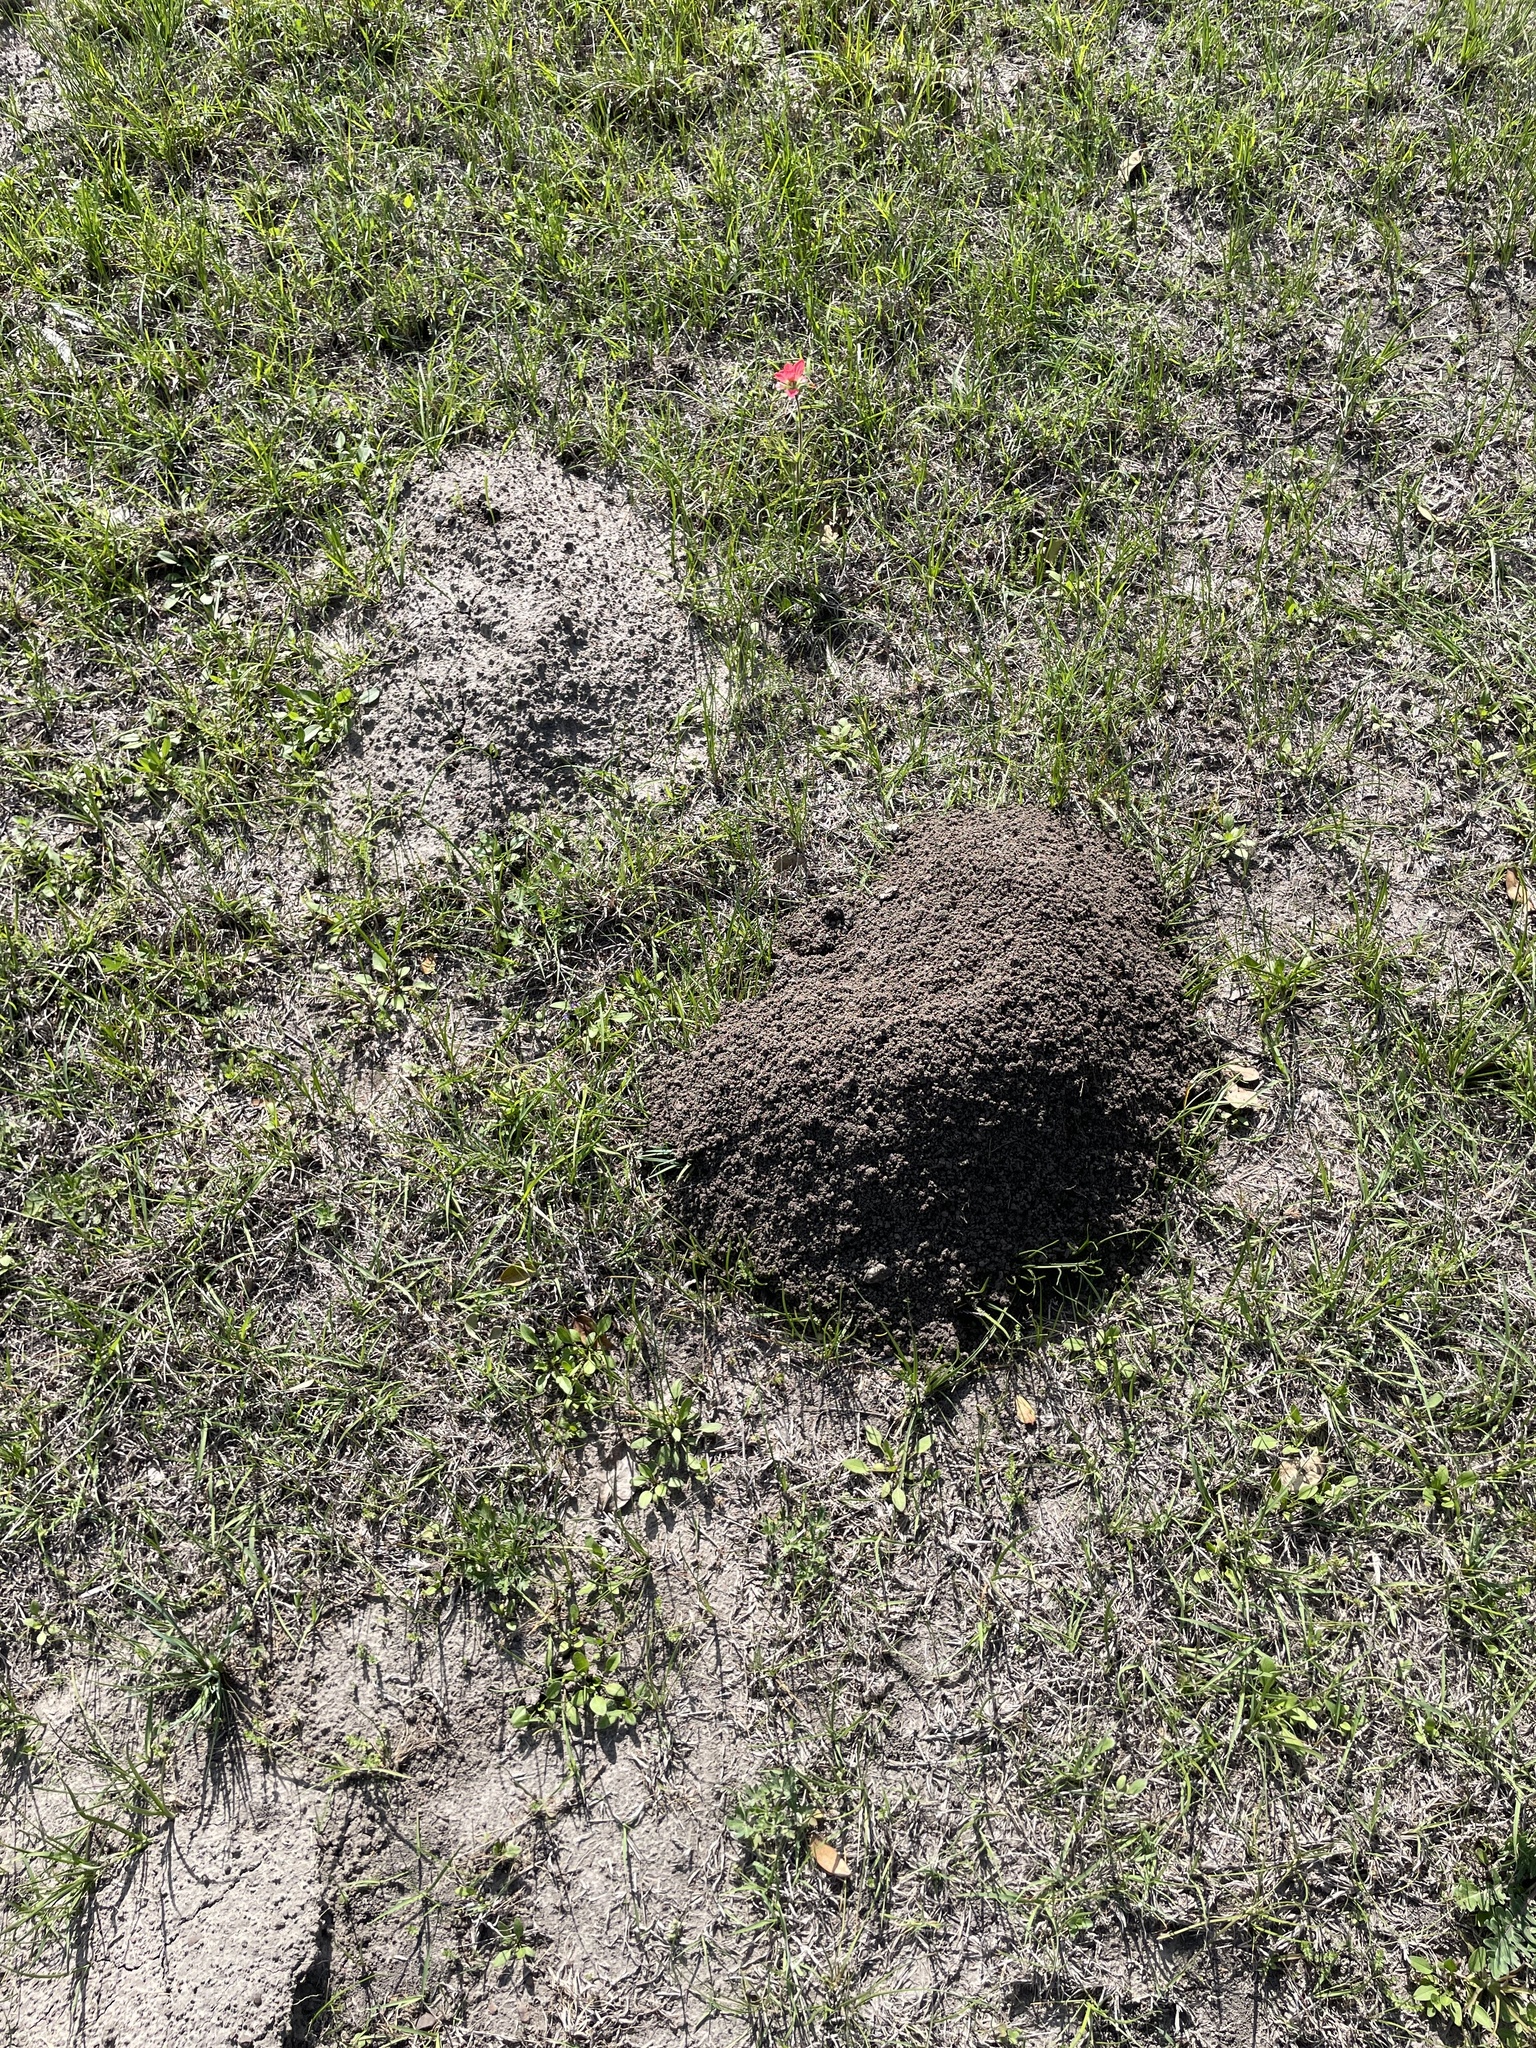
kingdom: Animalia
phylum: Chordata
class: Mammalia
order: Rodentia
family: Geomyidae
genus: Geomys
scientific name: Geomys attwateri
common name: Attwater's pocket gopher
